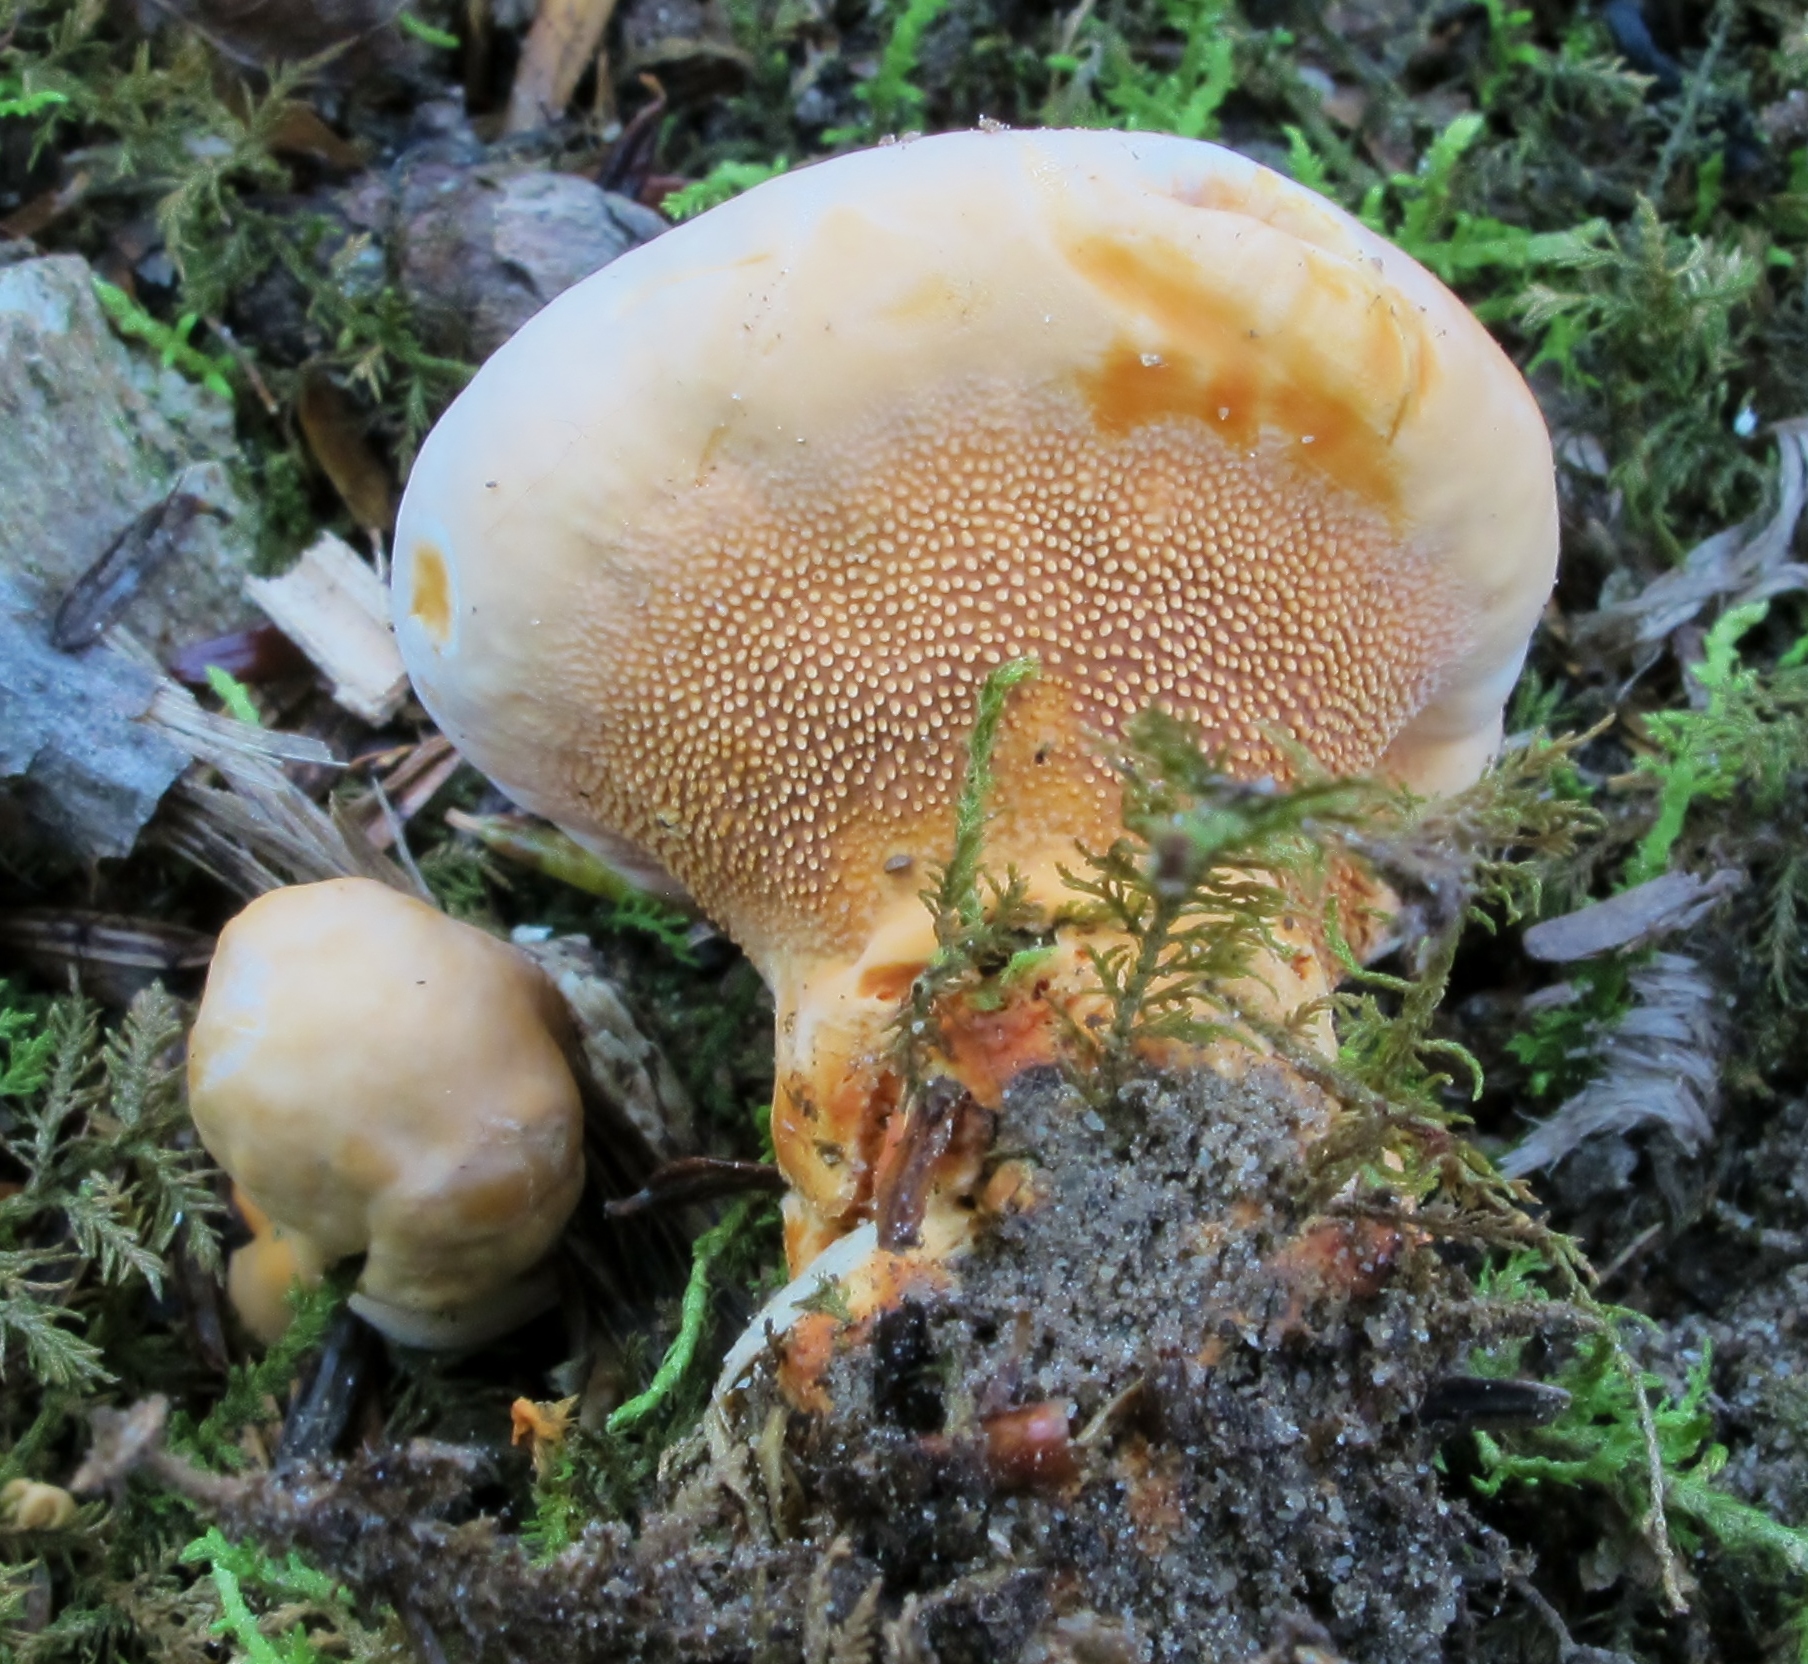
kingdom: Fungi
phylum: Basidiomycota
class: Agaricomycetes
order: Thelephorales
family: Bankeraceae
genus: Hydnellum
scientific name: Hydnellum aurantiacum
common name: Orange tooth
